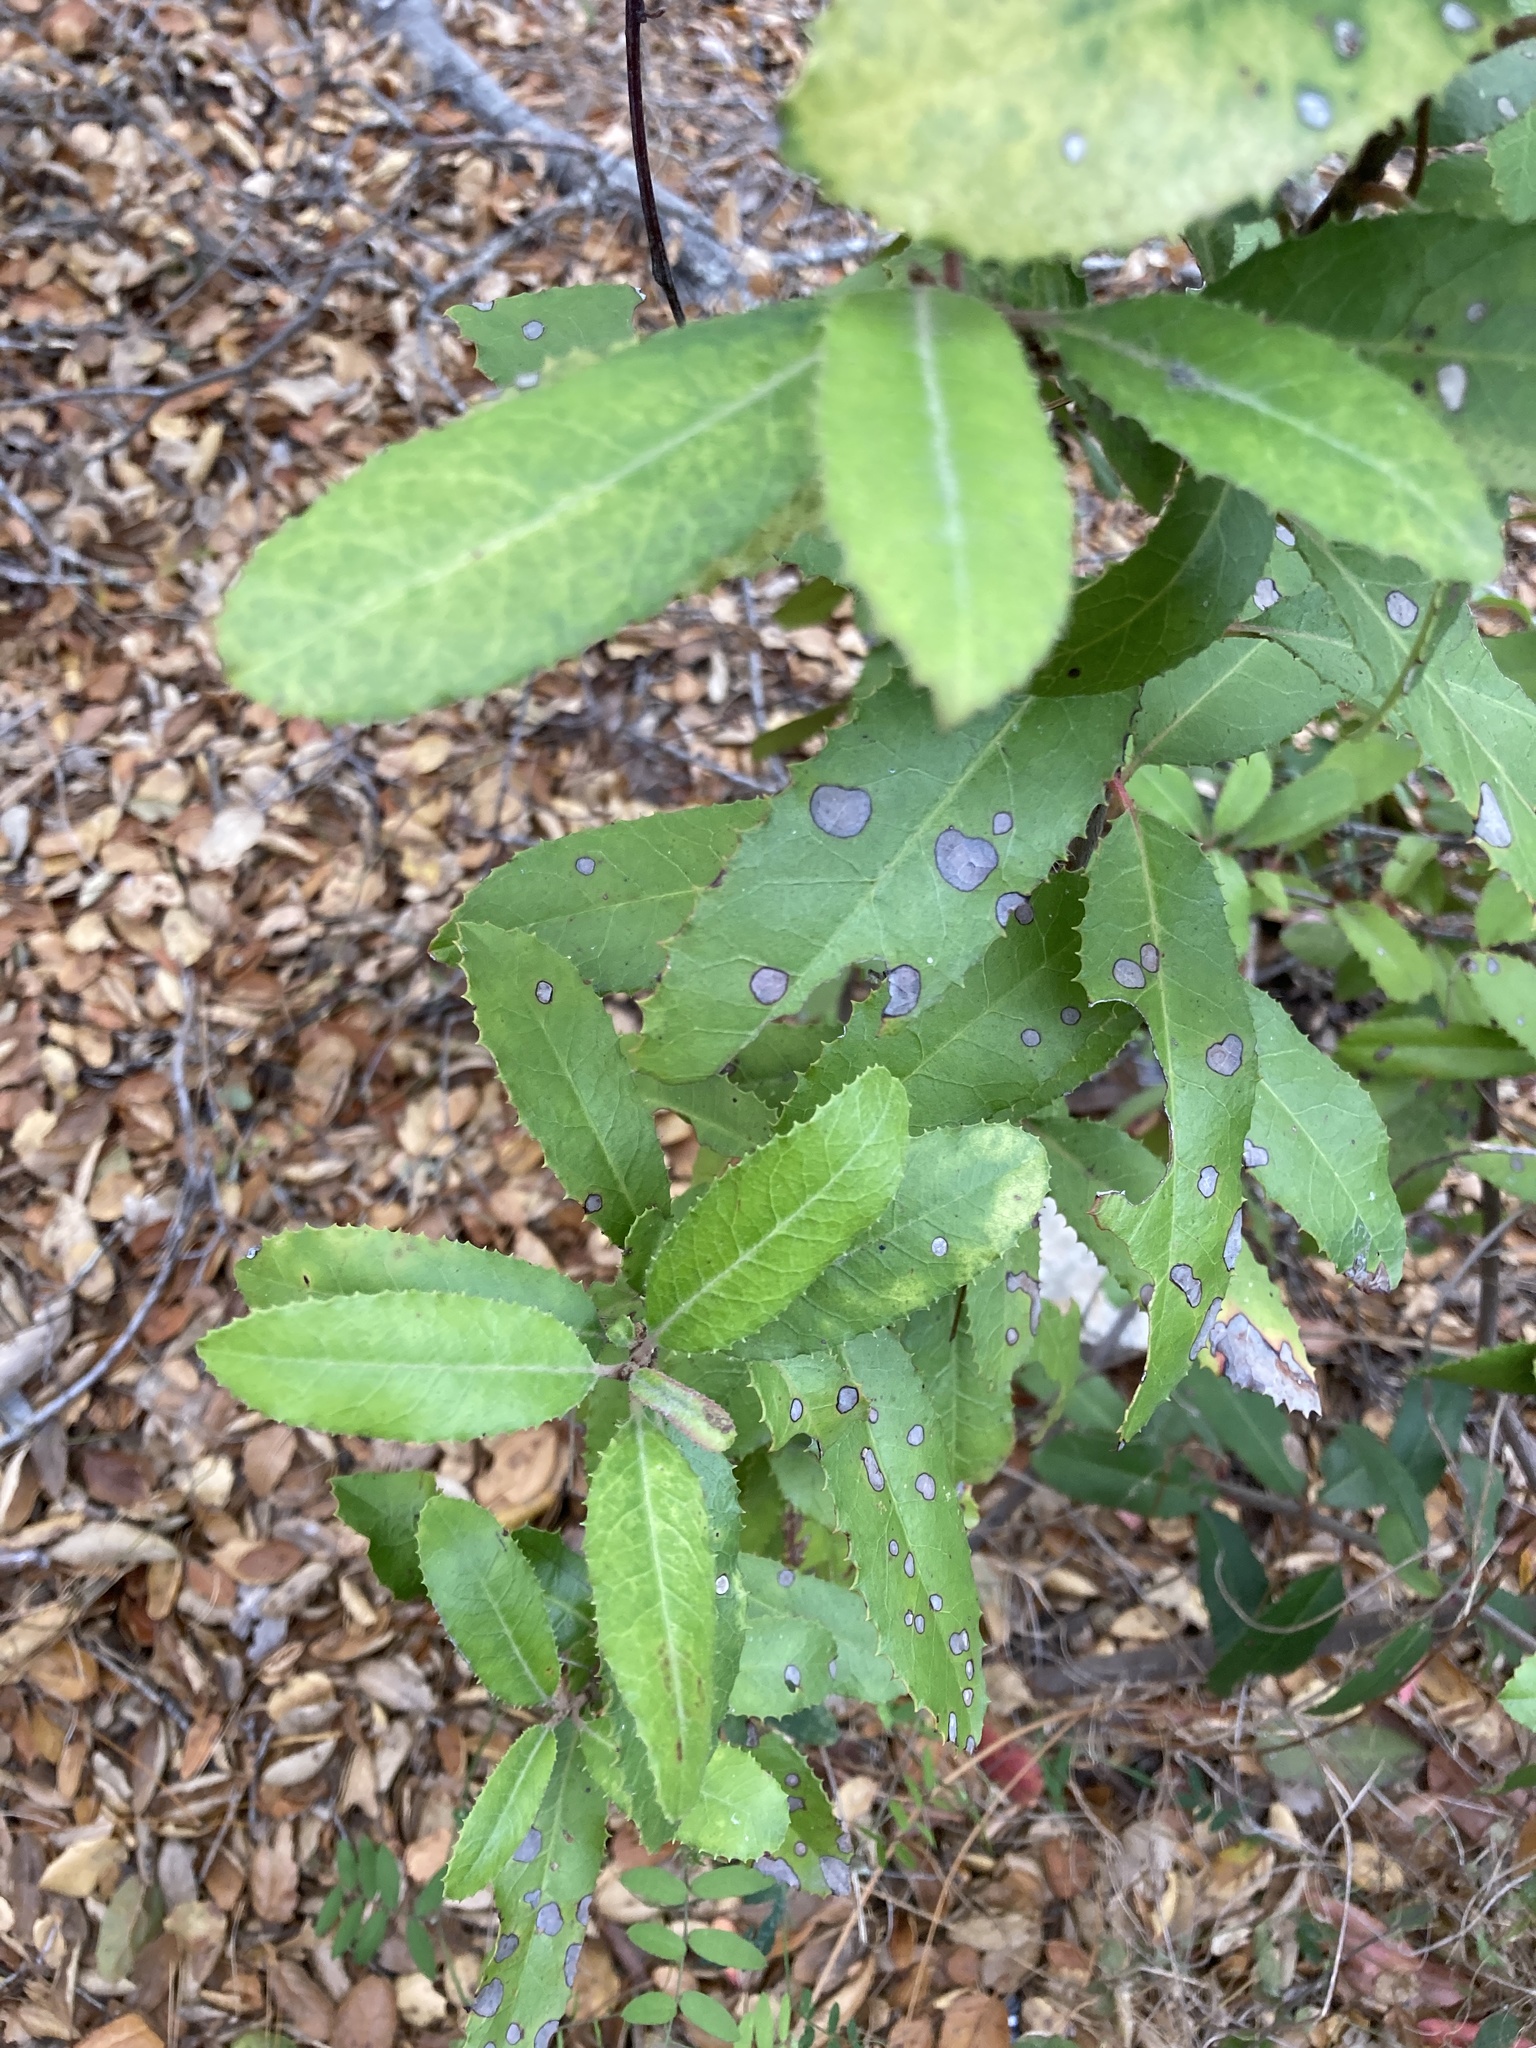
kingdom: Plantae
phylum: Tracheophyta
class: Magnoliopsida
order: Rosales
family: Rosaceae
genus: Heteromeles
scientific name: Heteromeles arbutifolia
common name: California-holly
